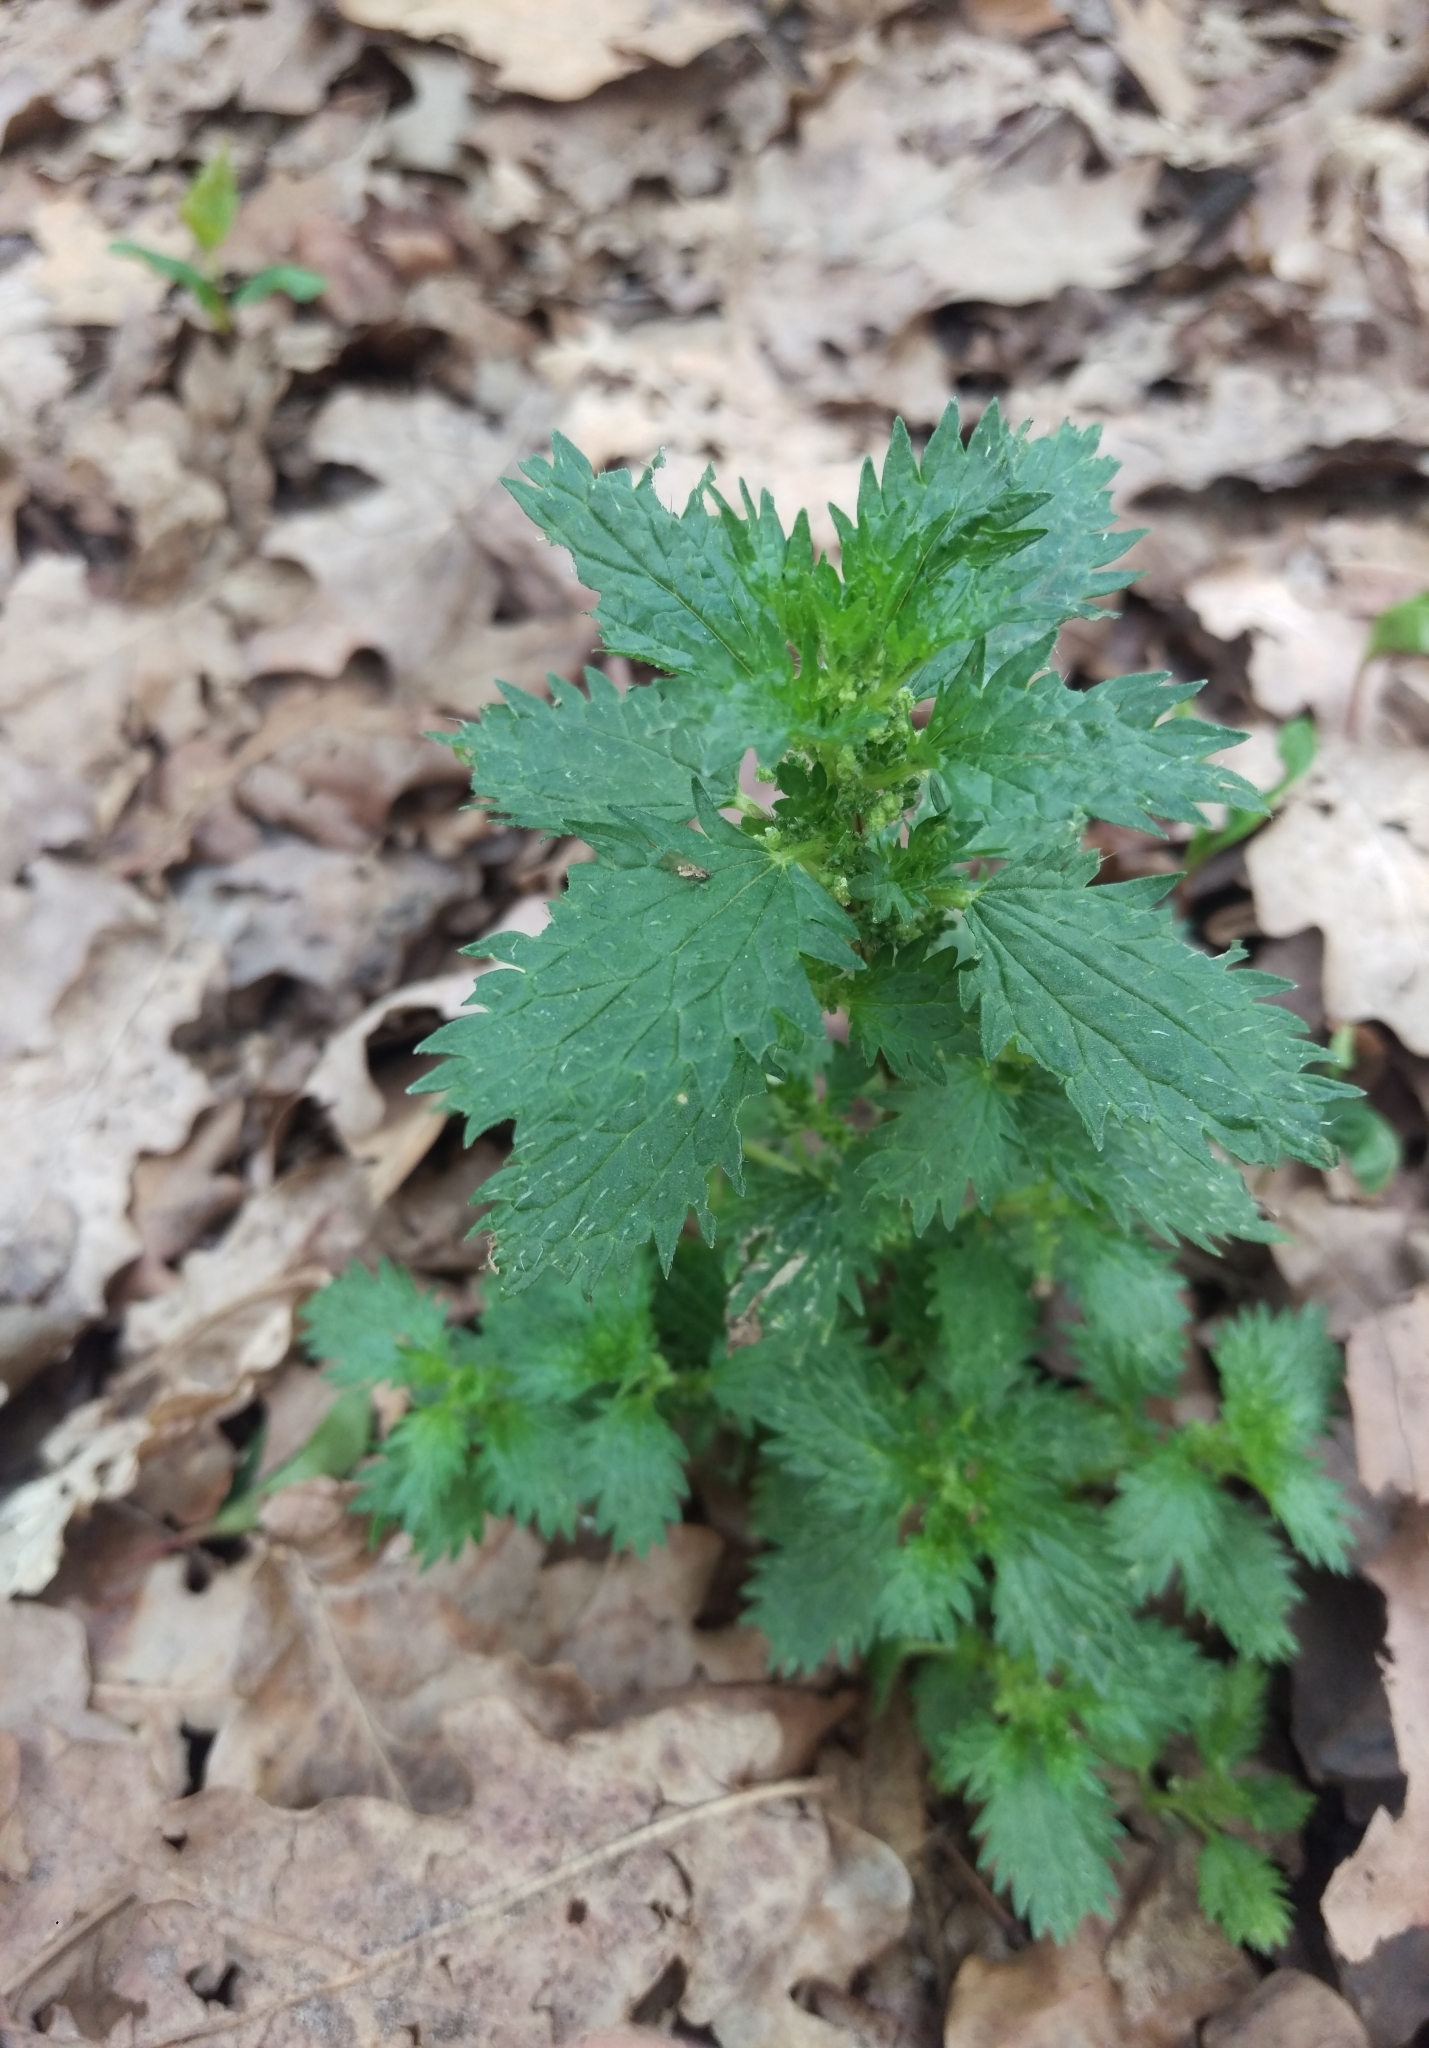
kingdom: Plantae
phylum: Tracheophyta
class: Magnoliopsida
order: Rosales
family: Urticaceae
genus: Urtica
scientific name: Urtica urens
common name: Dwarf nettle
